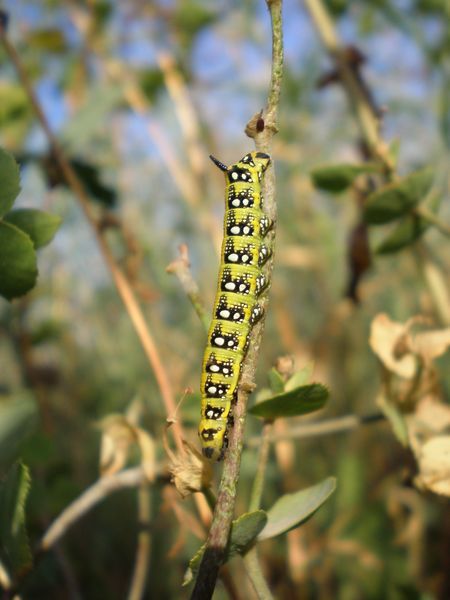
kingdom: Animalia
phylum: Arthropoda
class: Insecta
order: Lepidoptera
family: Sphingidae
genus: Hyles
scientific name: Hyles euphorbiae
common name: Spurge hawk-moth
